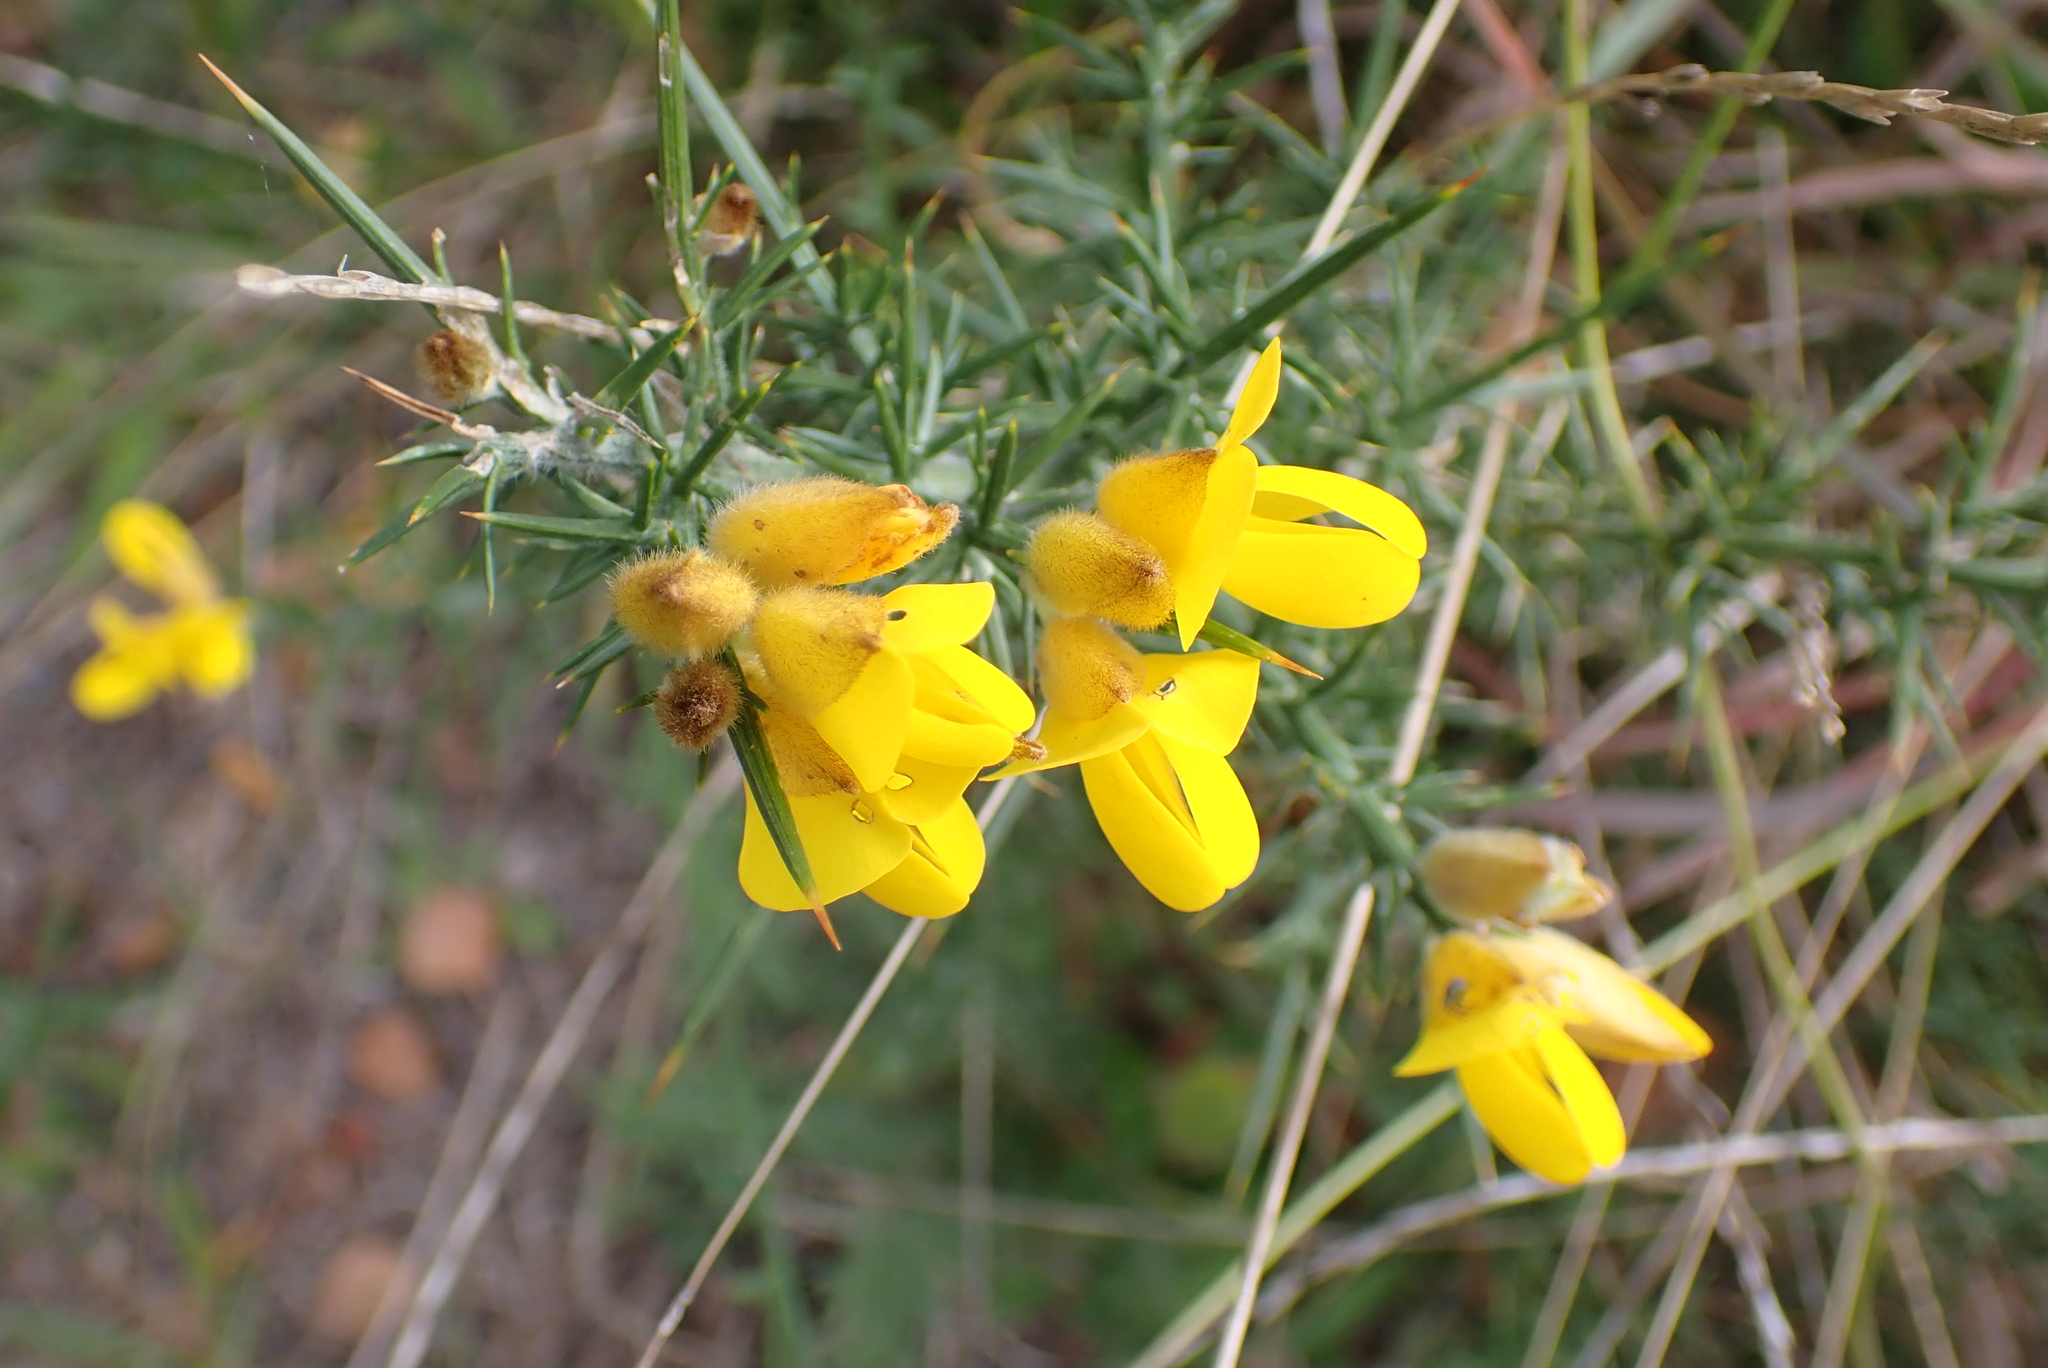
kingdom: Plantae
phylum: Tracheophyta
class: Magnoliopsida
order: Fabales
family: Fabaceae
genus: Ulex
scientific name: Ulex europaeus
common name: Common gorse
